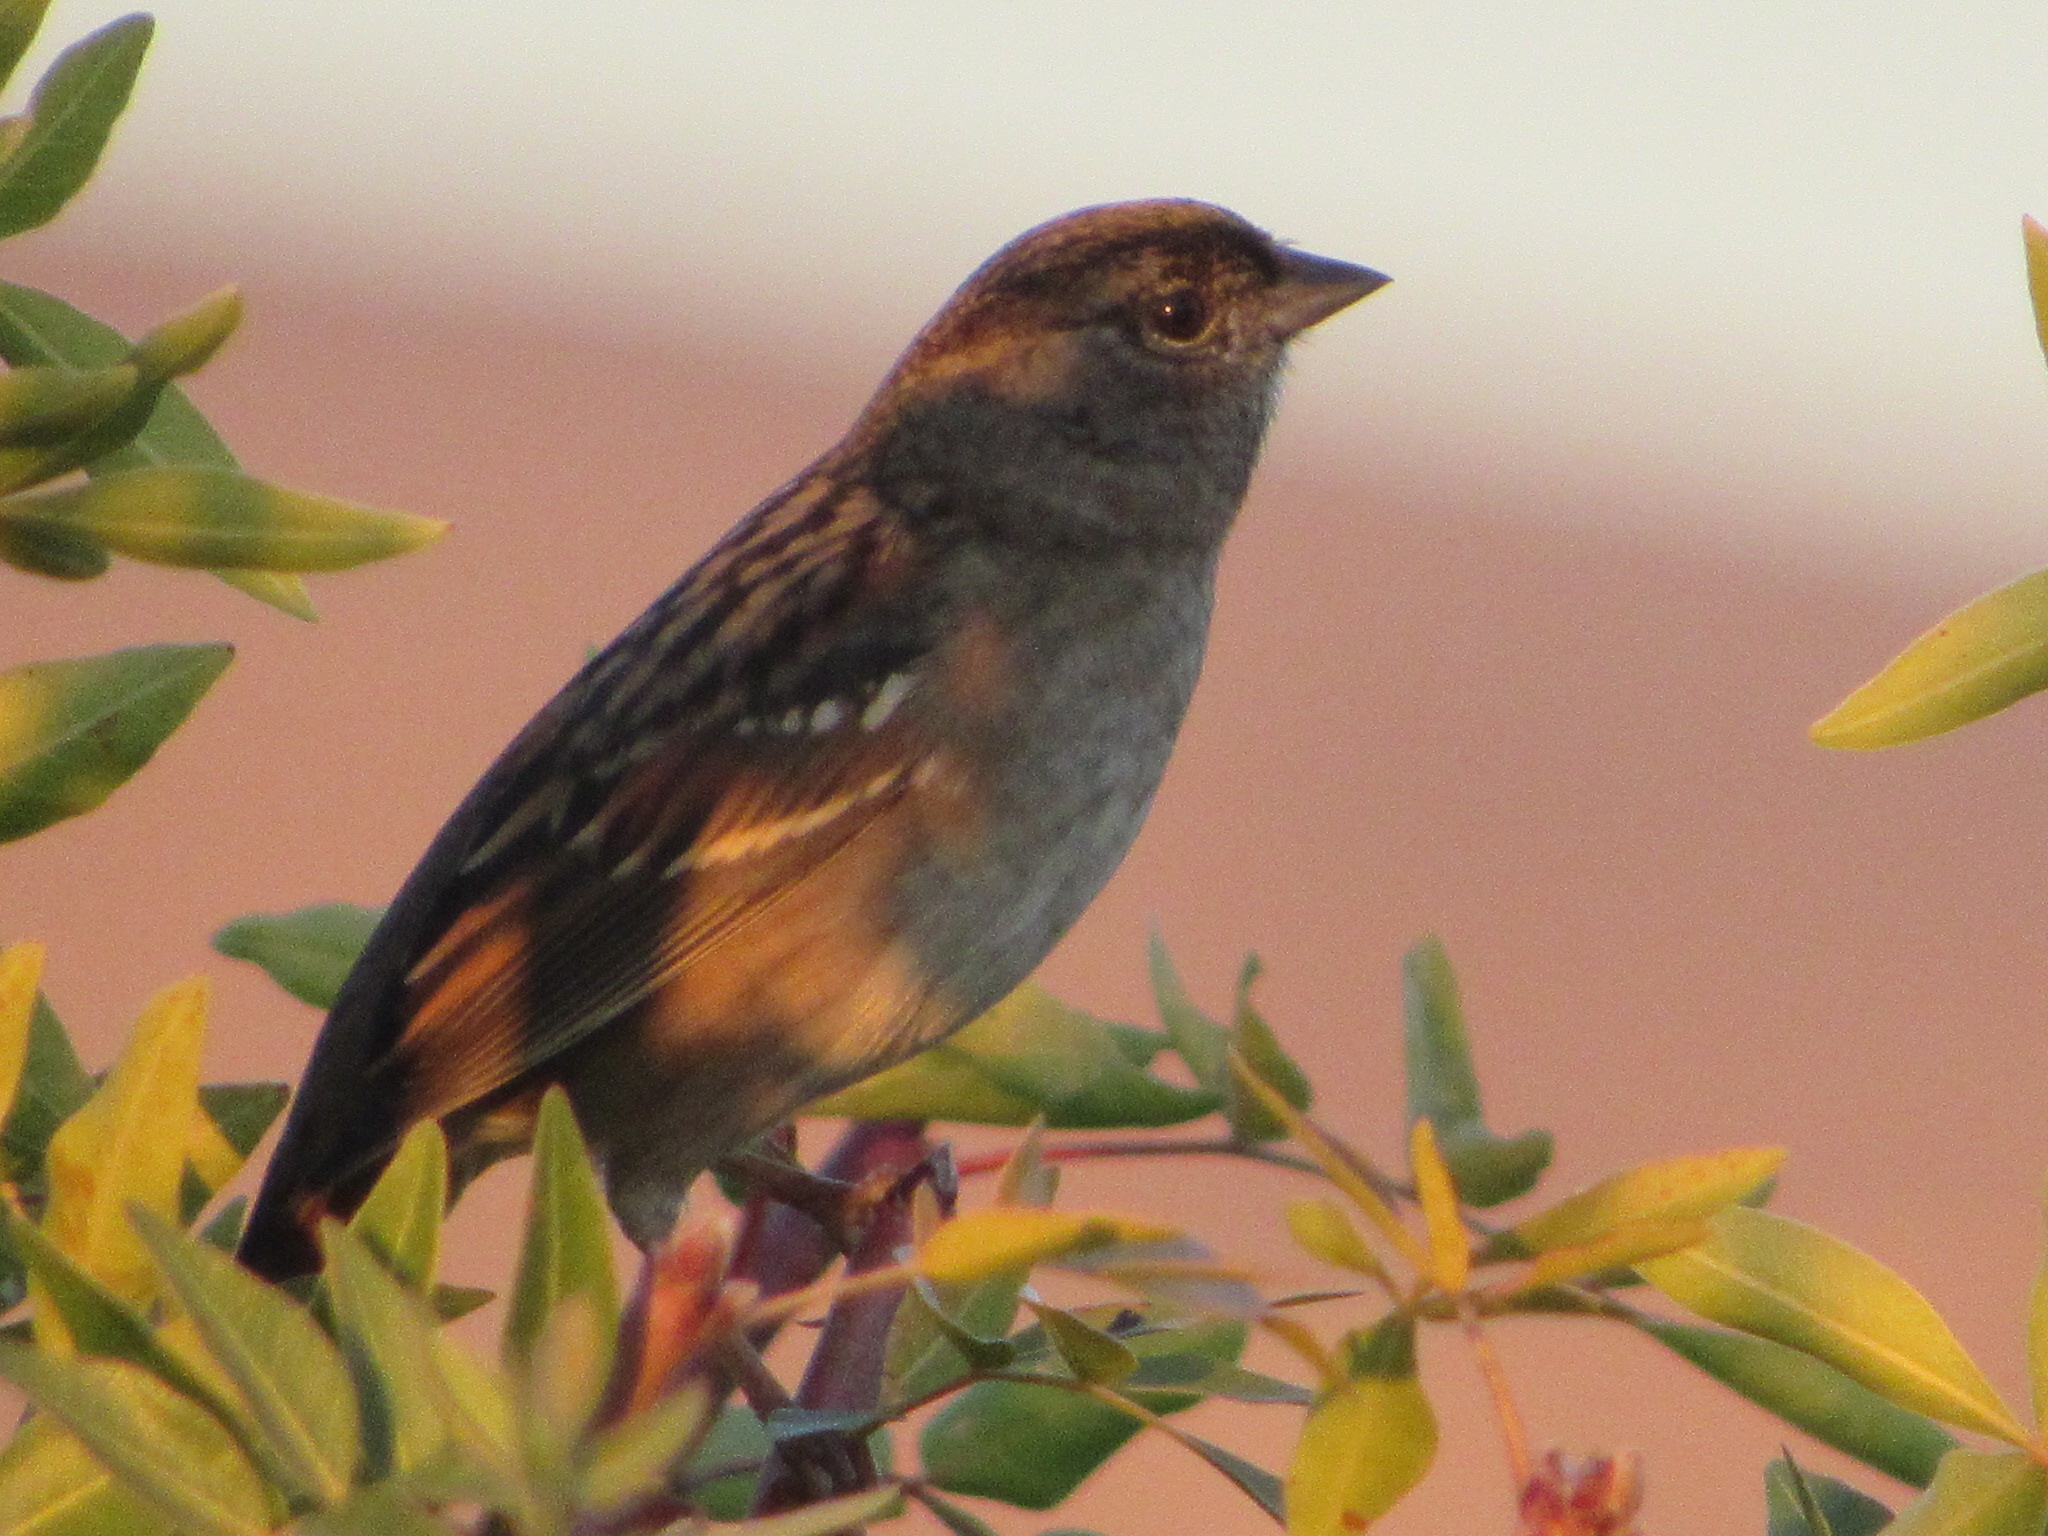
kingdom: Animalia
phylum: Chordata
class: Aves
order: Passeriformes
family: Passerellidae
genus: Zonotrichia
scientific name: Zonotrichia atricapilla
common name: Golden-crowned sparrow
